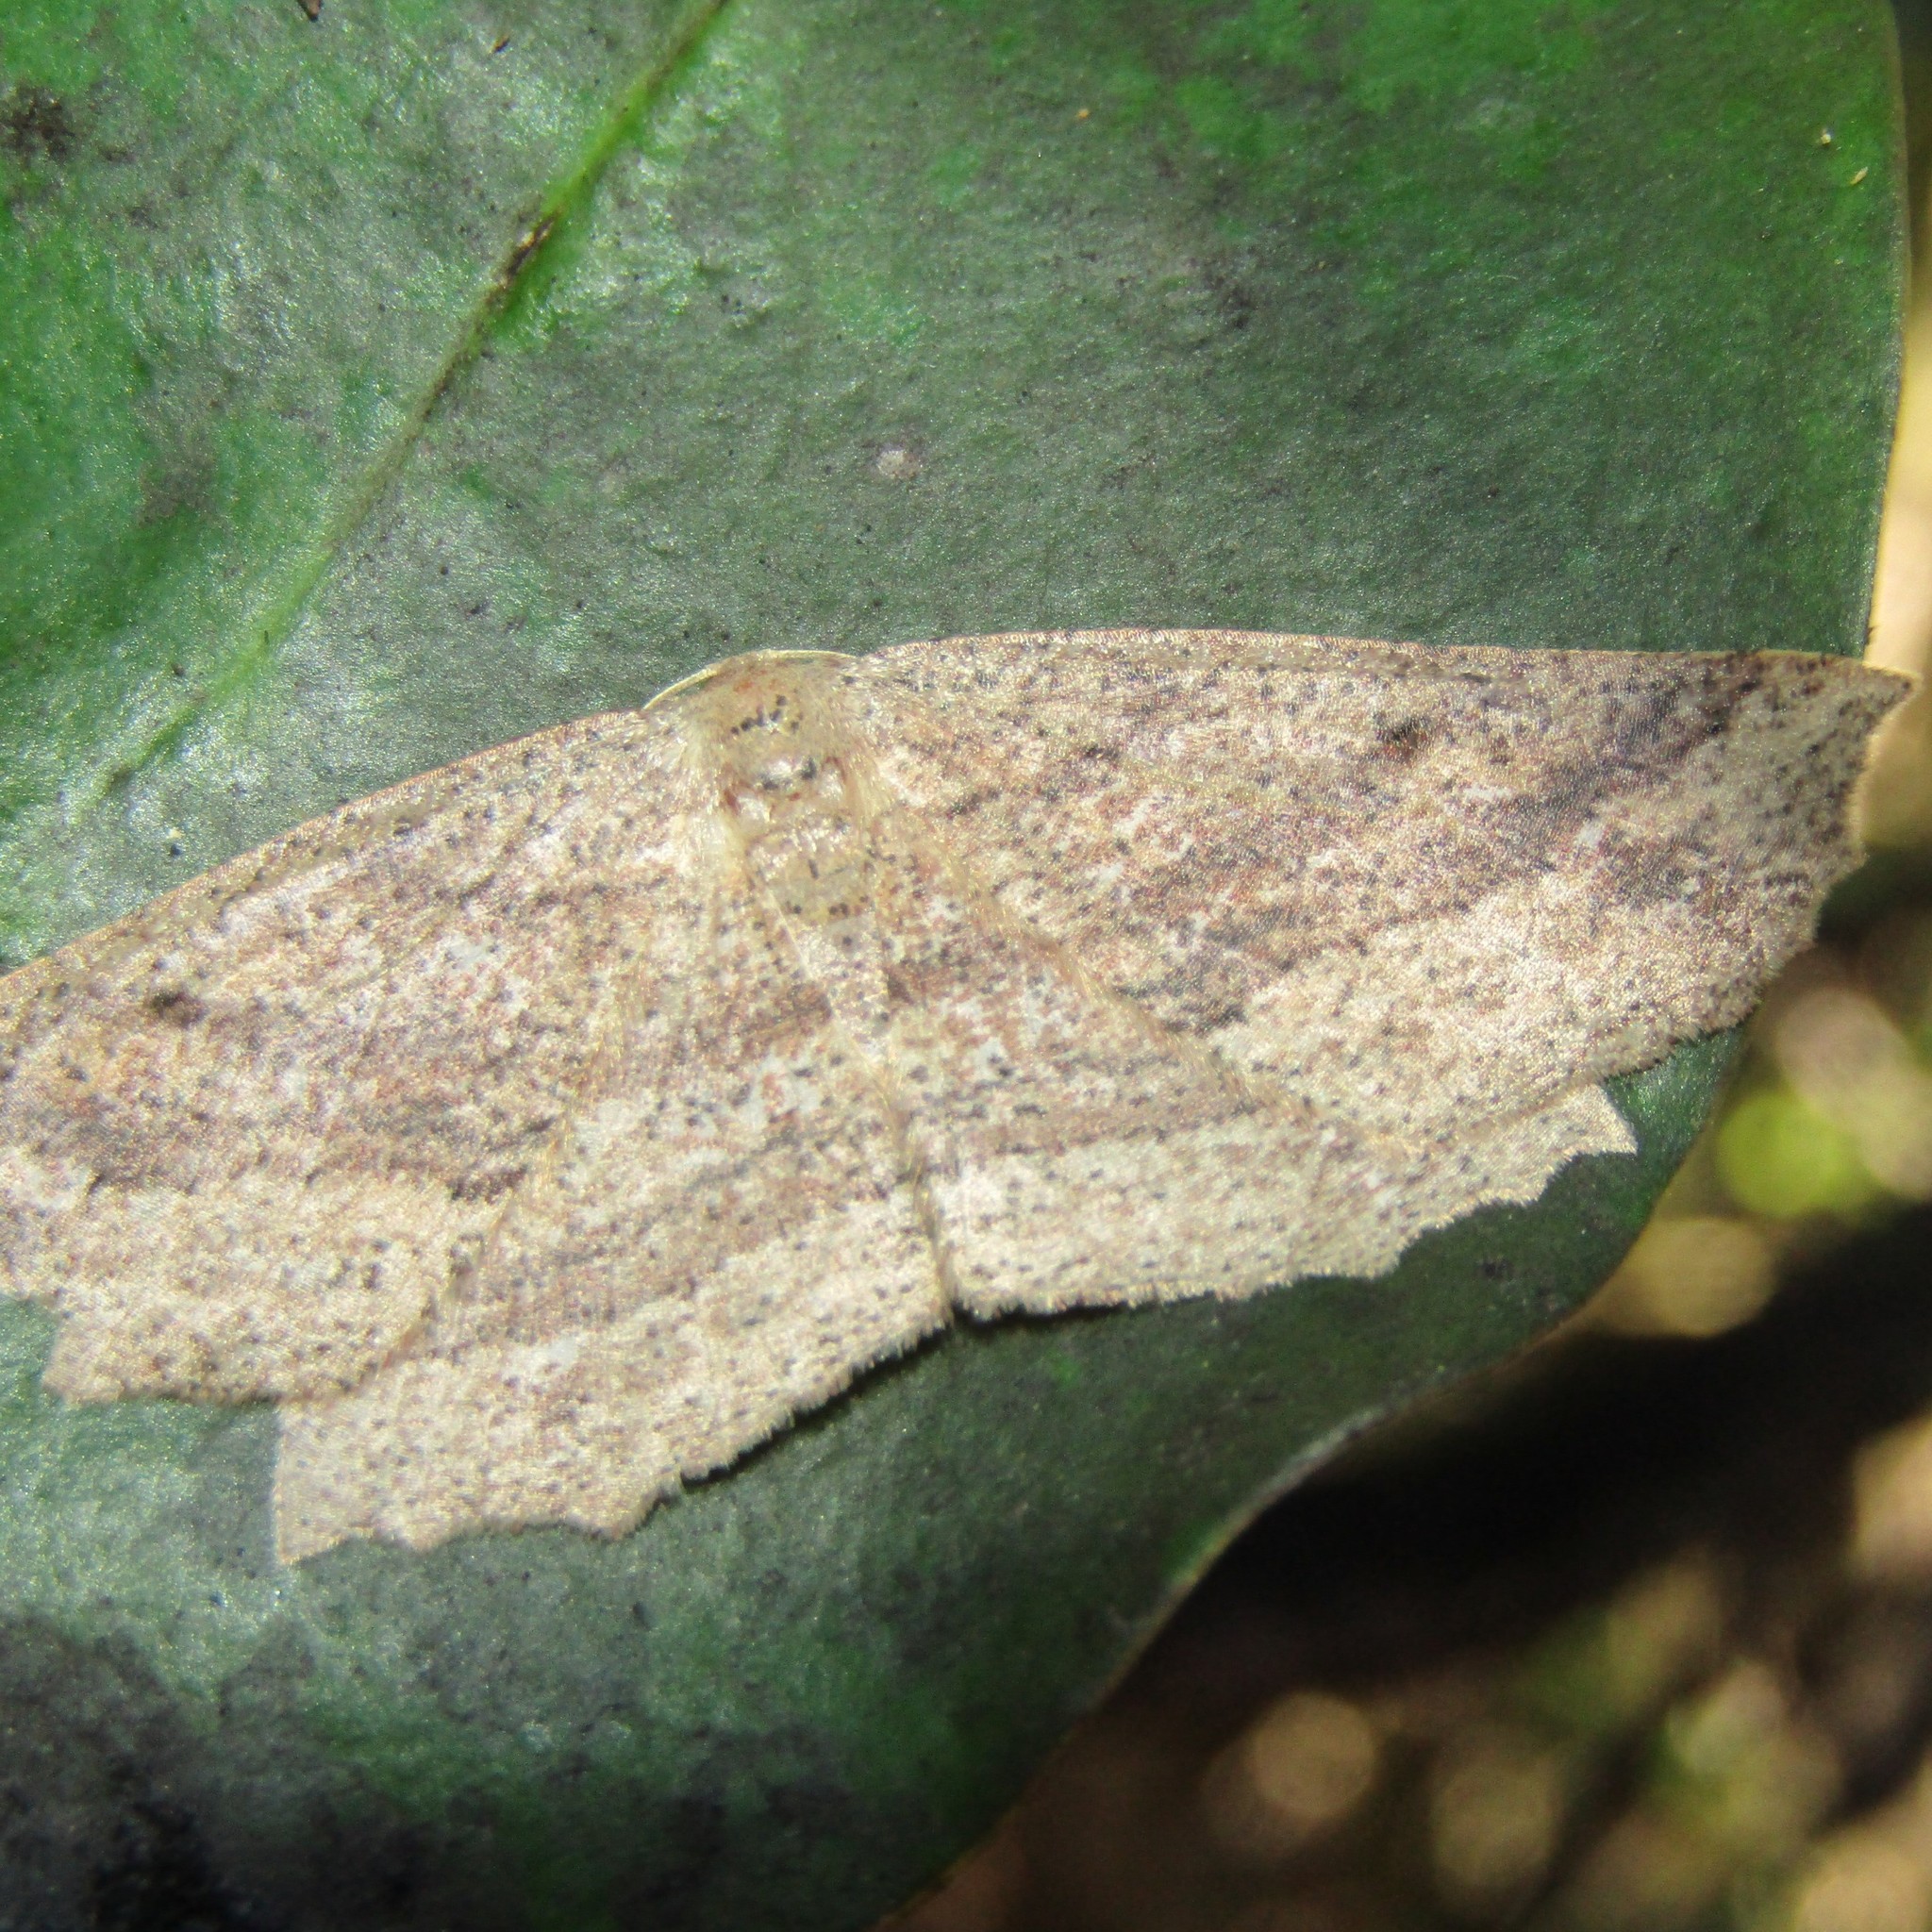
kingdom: Animalia
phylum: Arthropoda
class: Insecta
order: Lepidoptera
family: Geometridae
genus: Xyridacma
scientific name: Xyridacma veronicae
